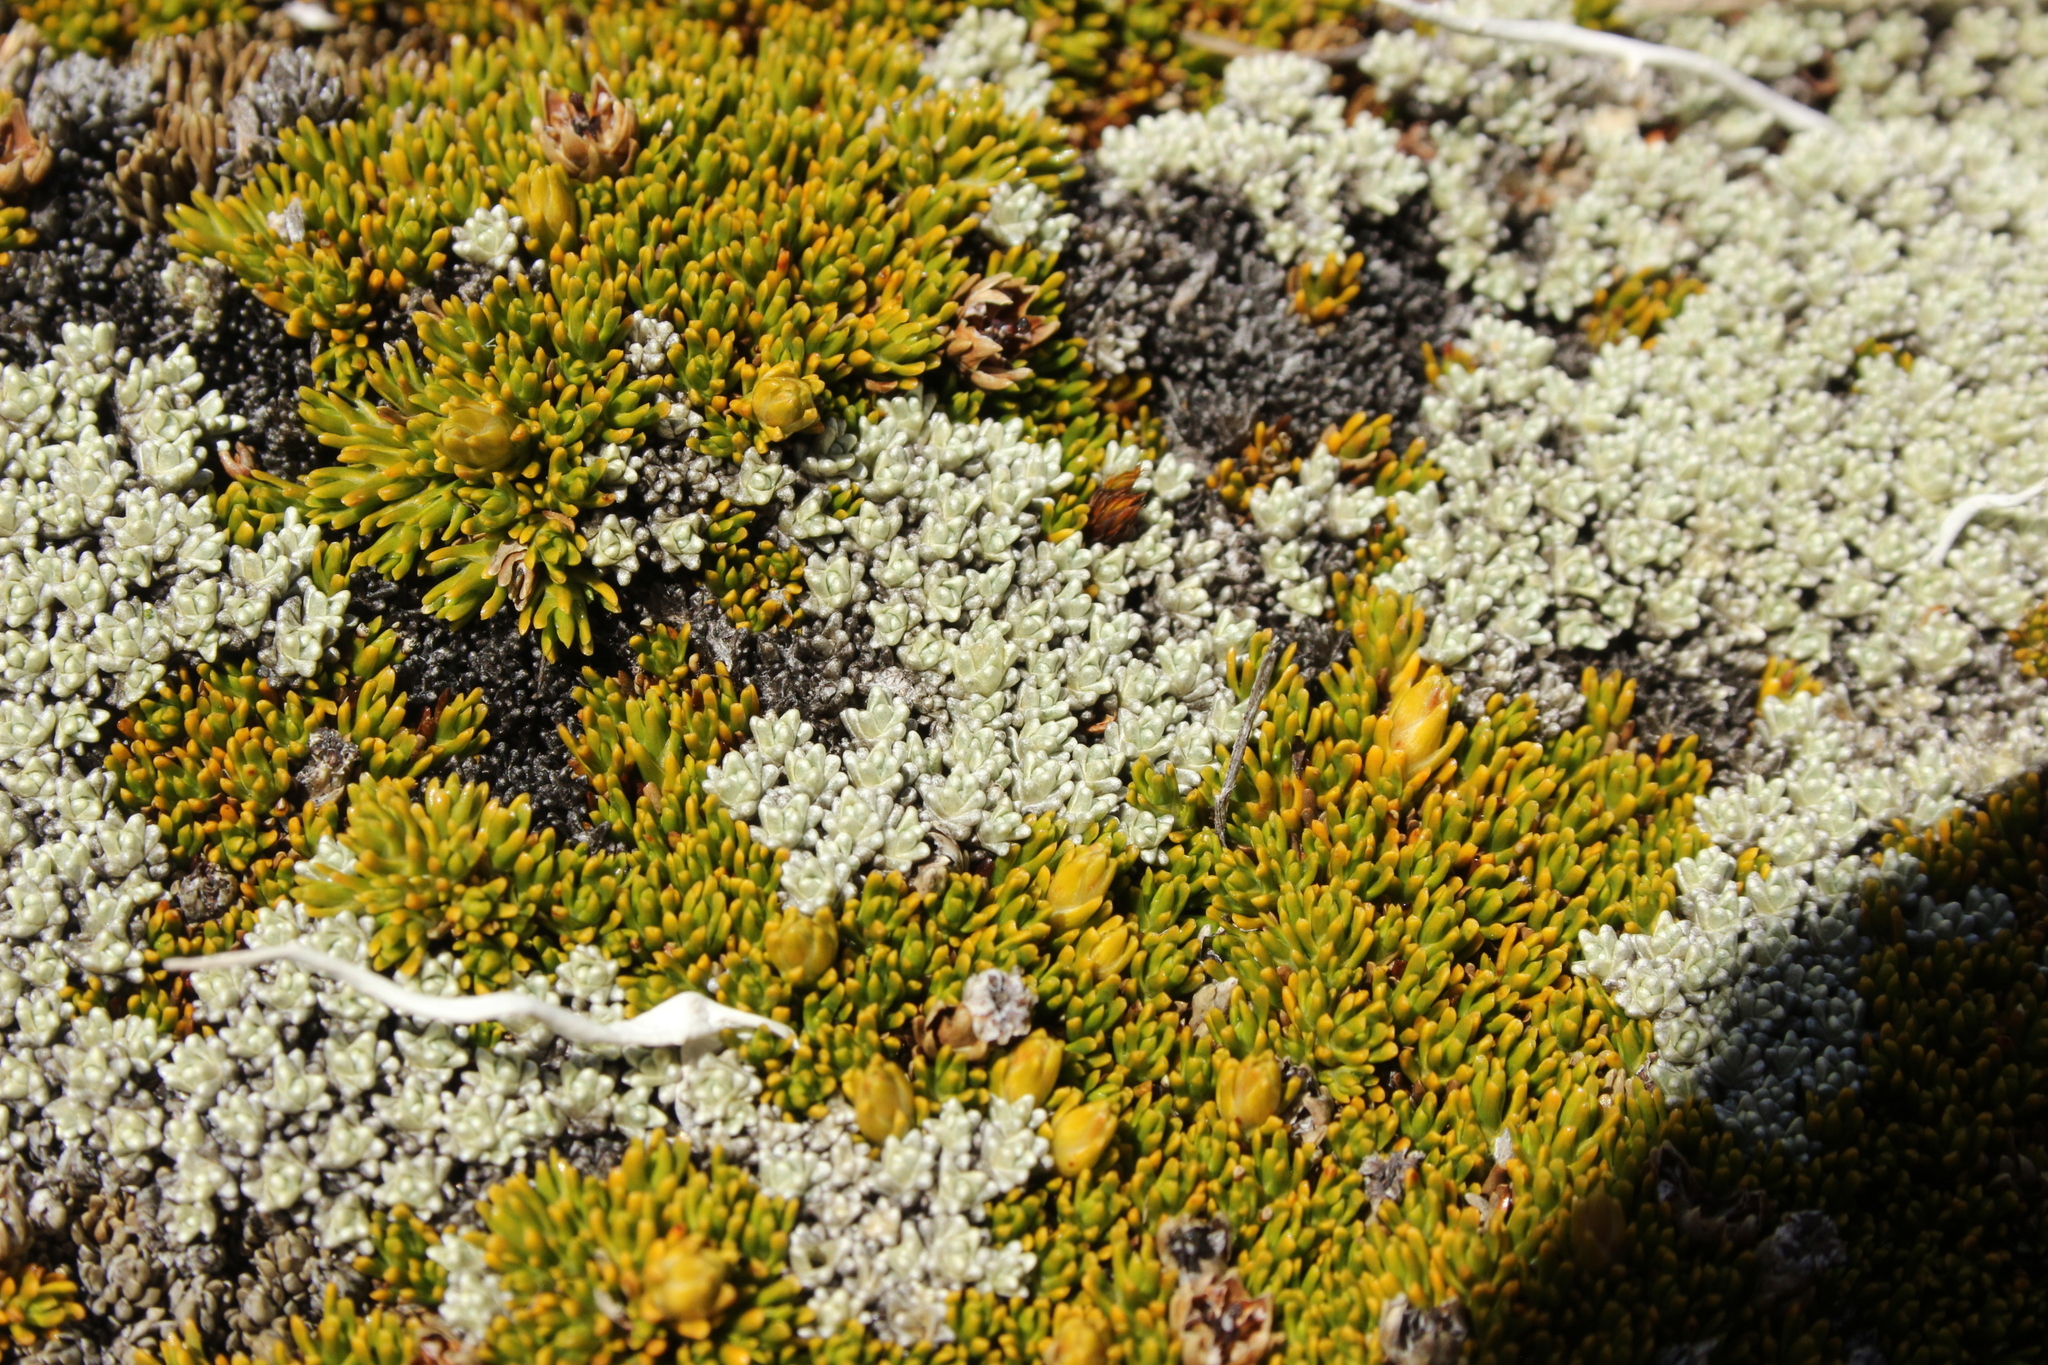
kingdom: Plantae
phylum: Tracheophyta
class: Magnoliopsida
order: Asterales
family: Asteraceae
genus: Raoulia
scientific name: Raoulia hectorii
